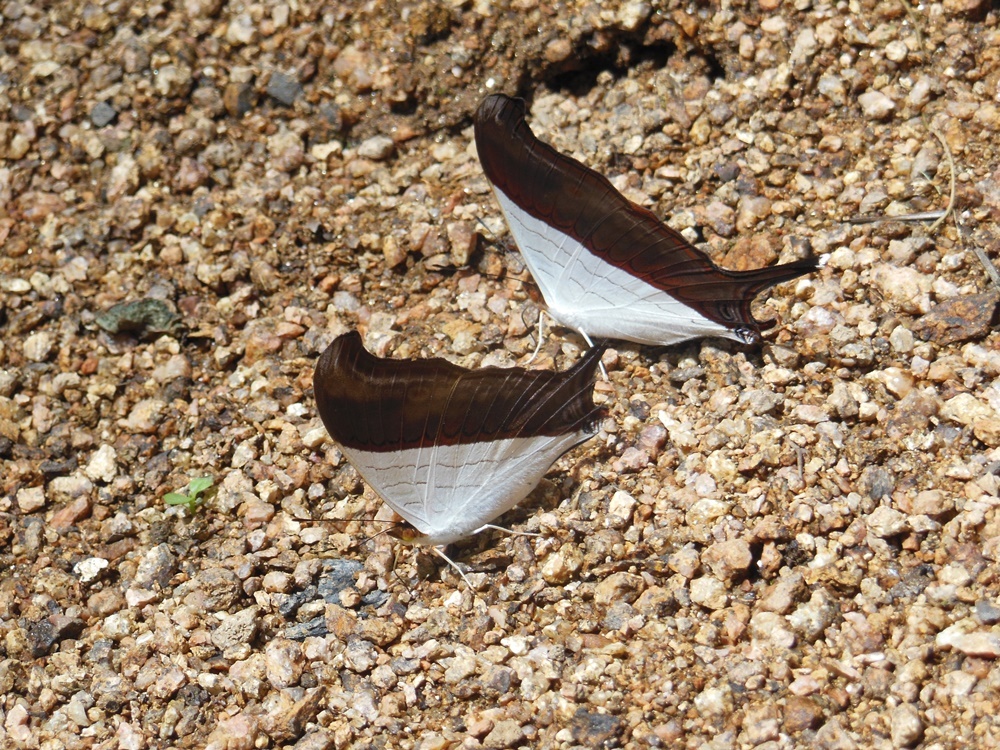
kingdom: Animalia
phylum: Arthropoda
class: Insecta
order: Lepidoptera
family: Nymphalidae
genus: Marpesia
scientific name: Marpesia zerynthia
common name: Waiter daggerwing
